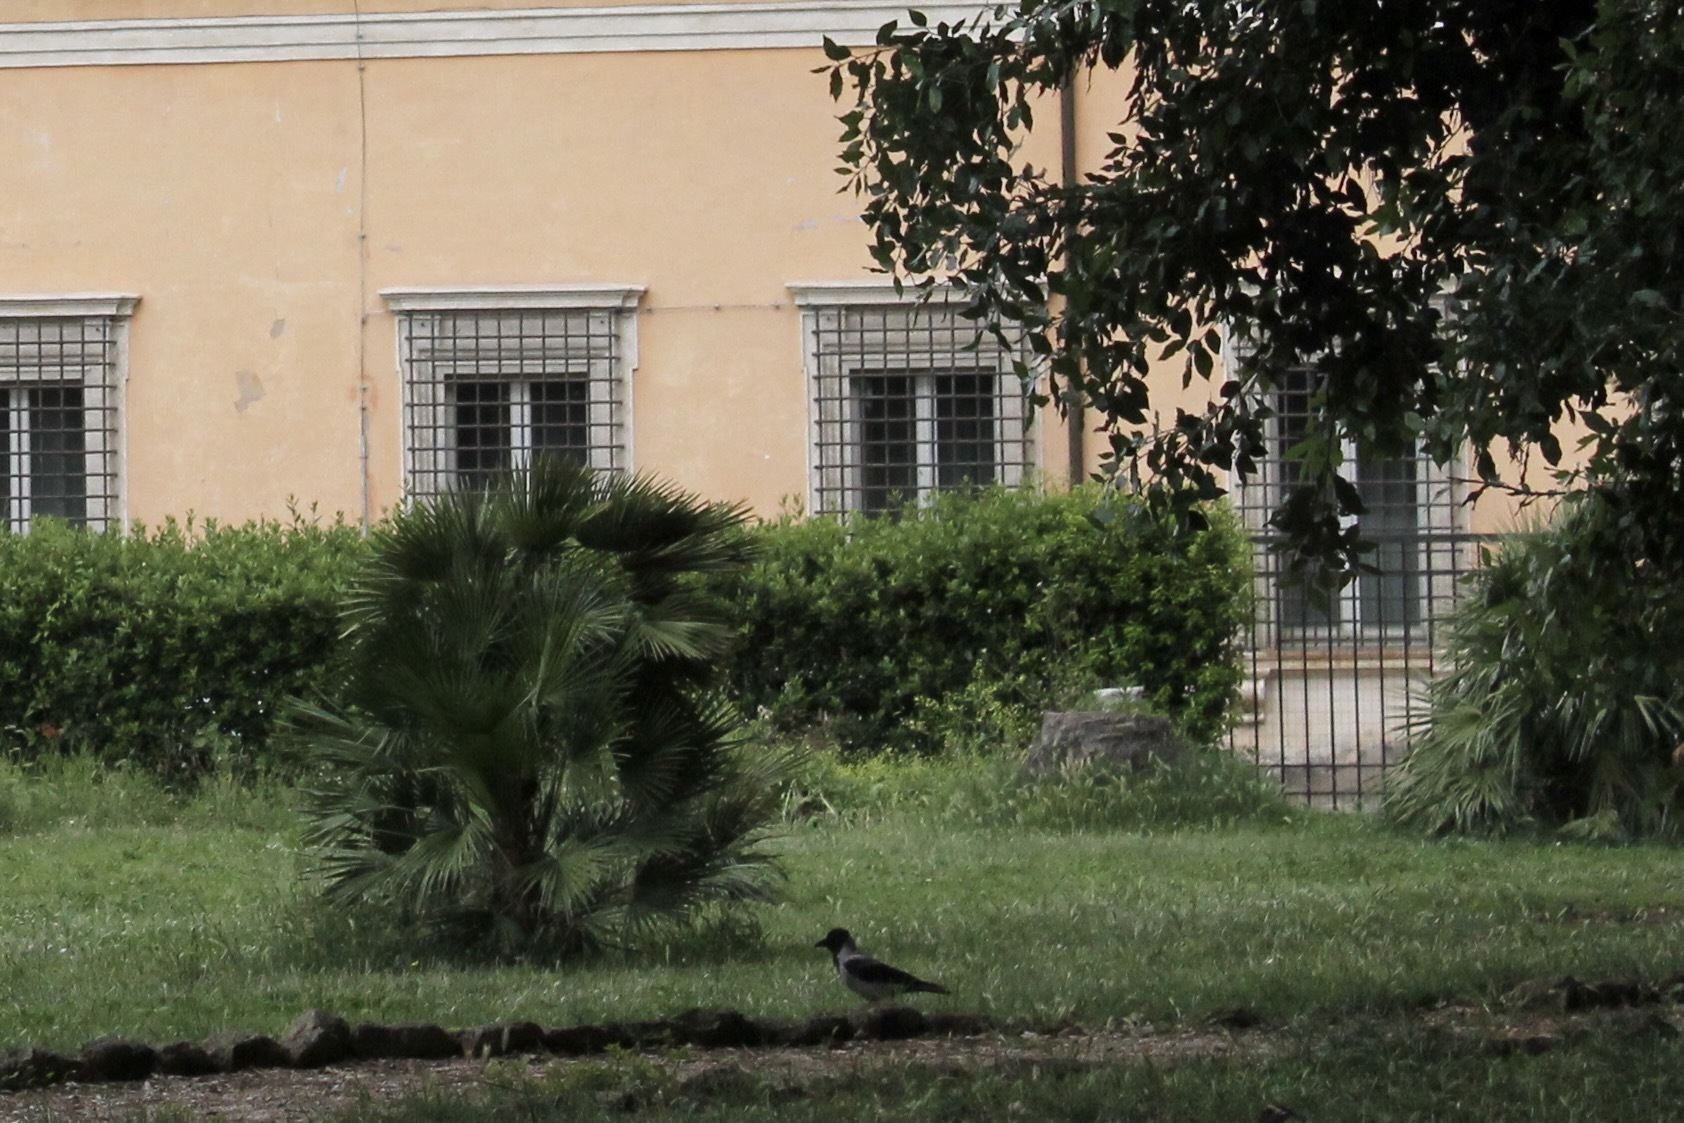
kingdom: Animalia
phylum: Chordata
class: Aves
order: Passeriformes
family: Corvidae
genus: Corvus
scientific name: Corvus cornix
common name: Hooded crow
